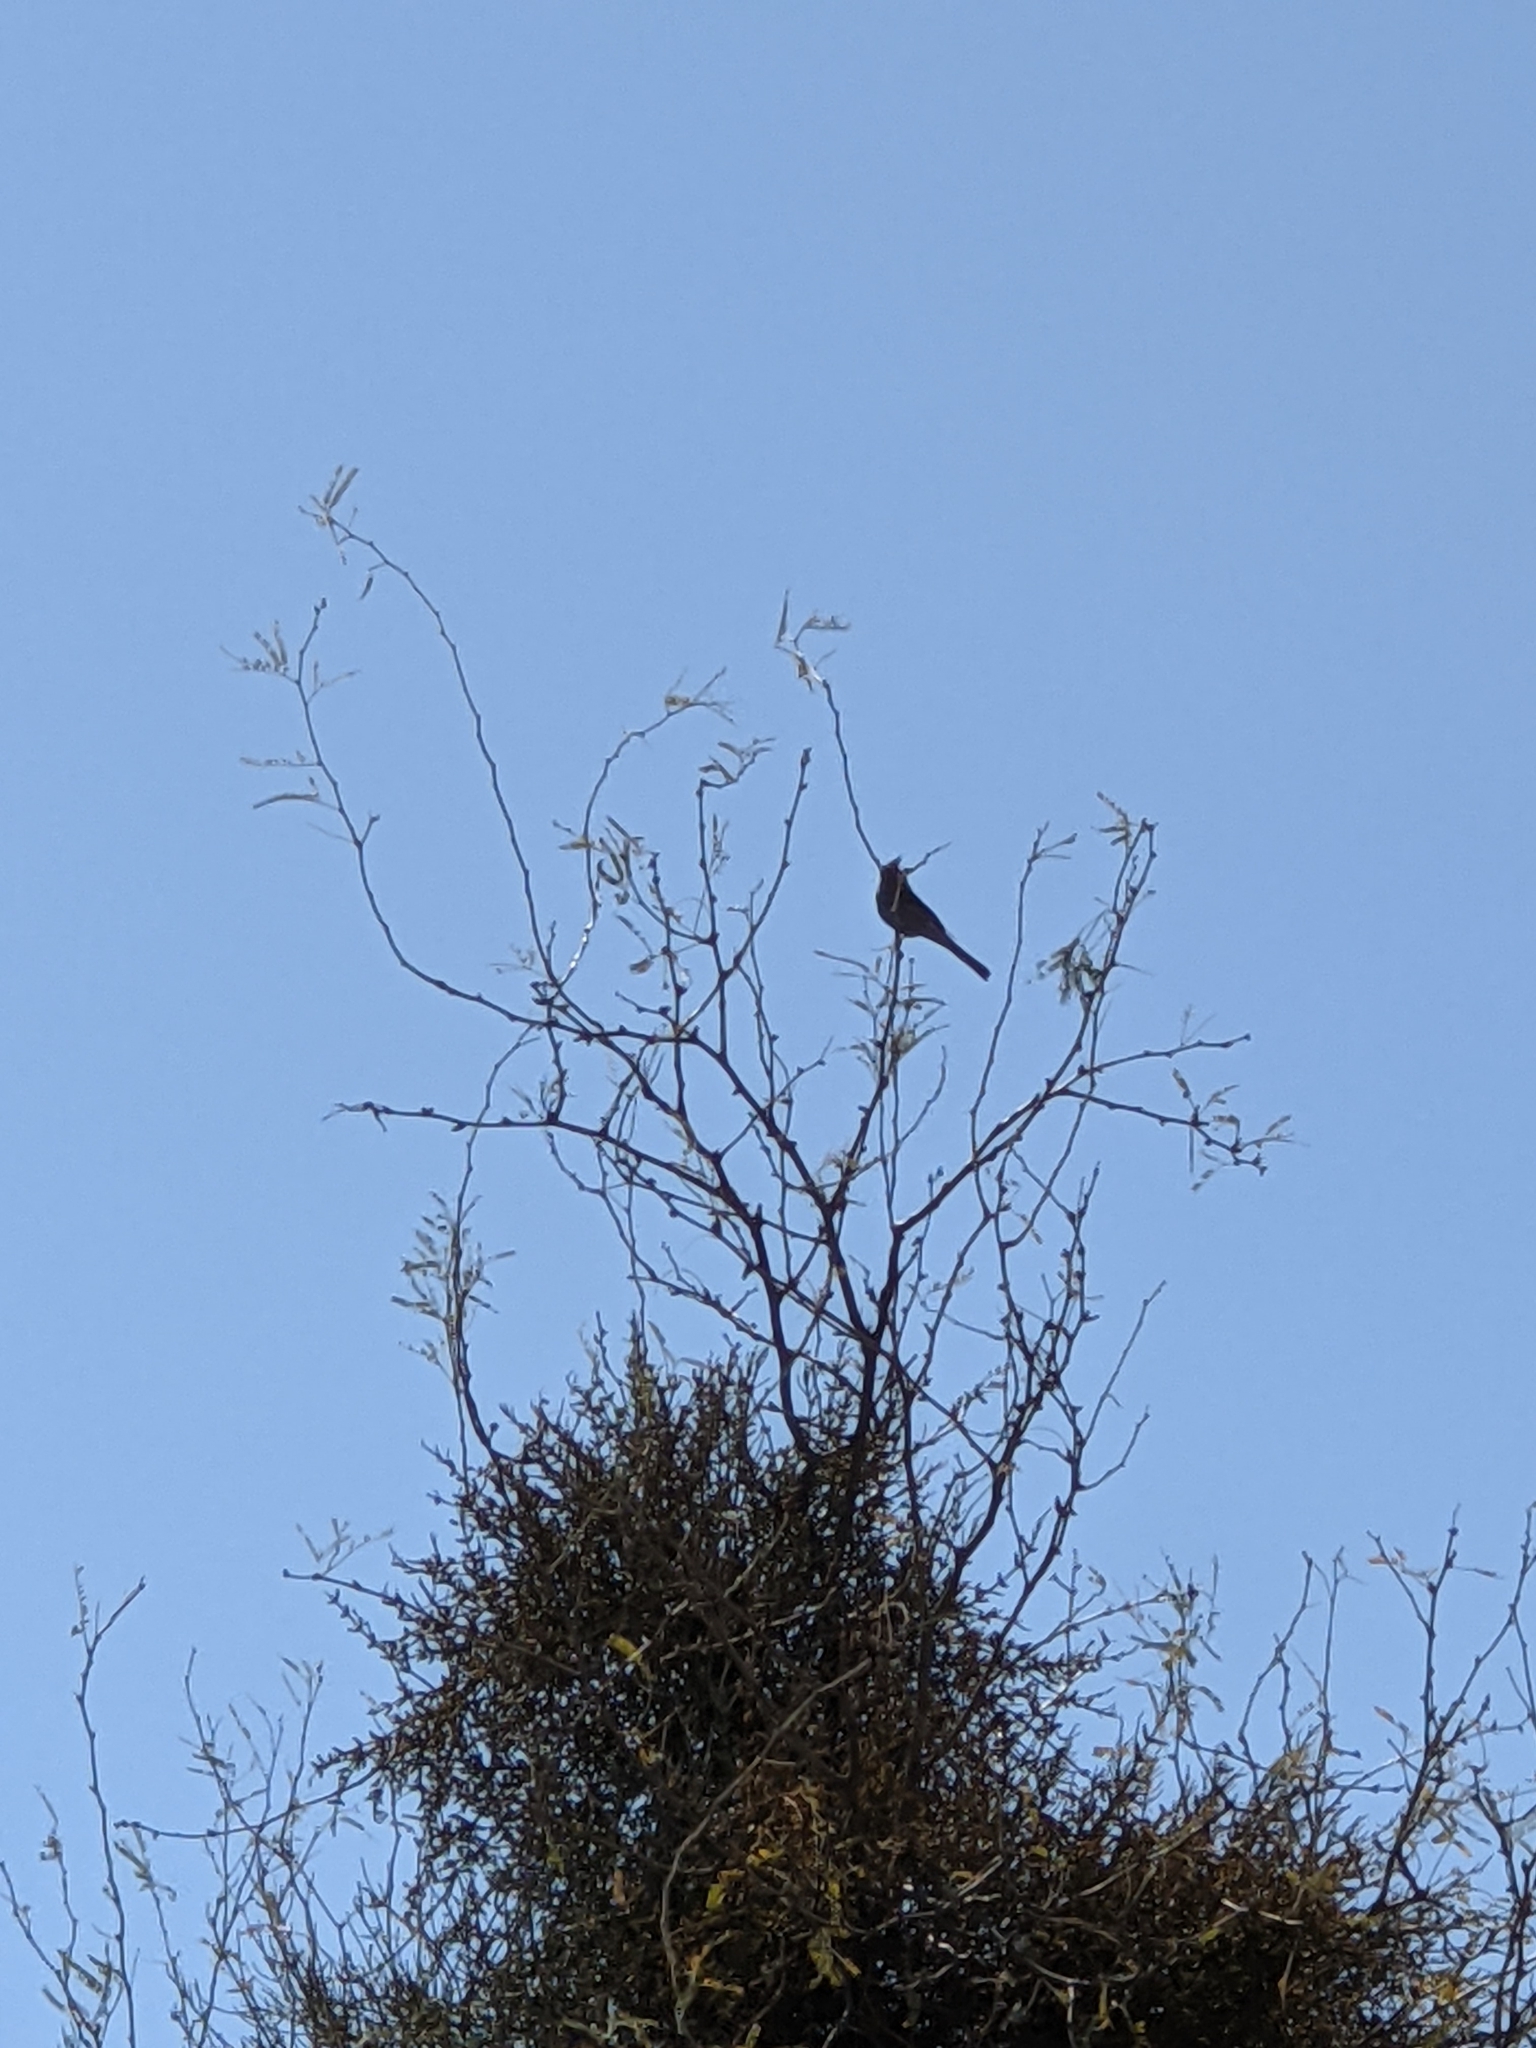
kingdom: Animalia
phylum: Chordata
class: Aves
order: Passeriformes
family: Ptilogonatidae
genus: Phainopepla
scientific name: Phainopepla nitens
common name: Phainopepla
